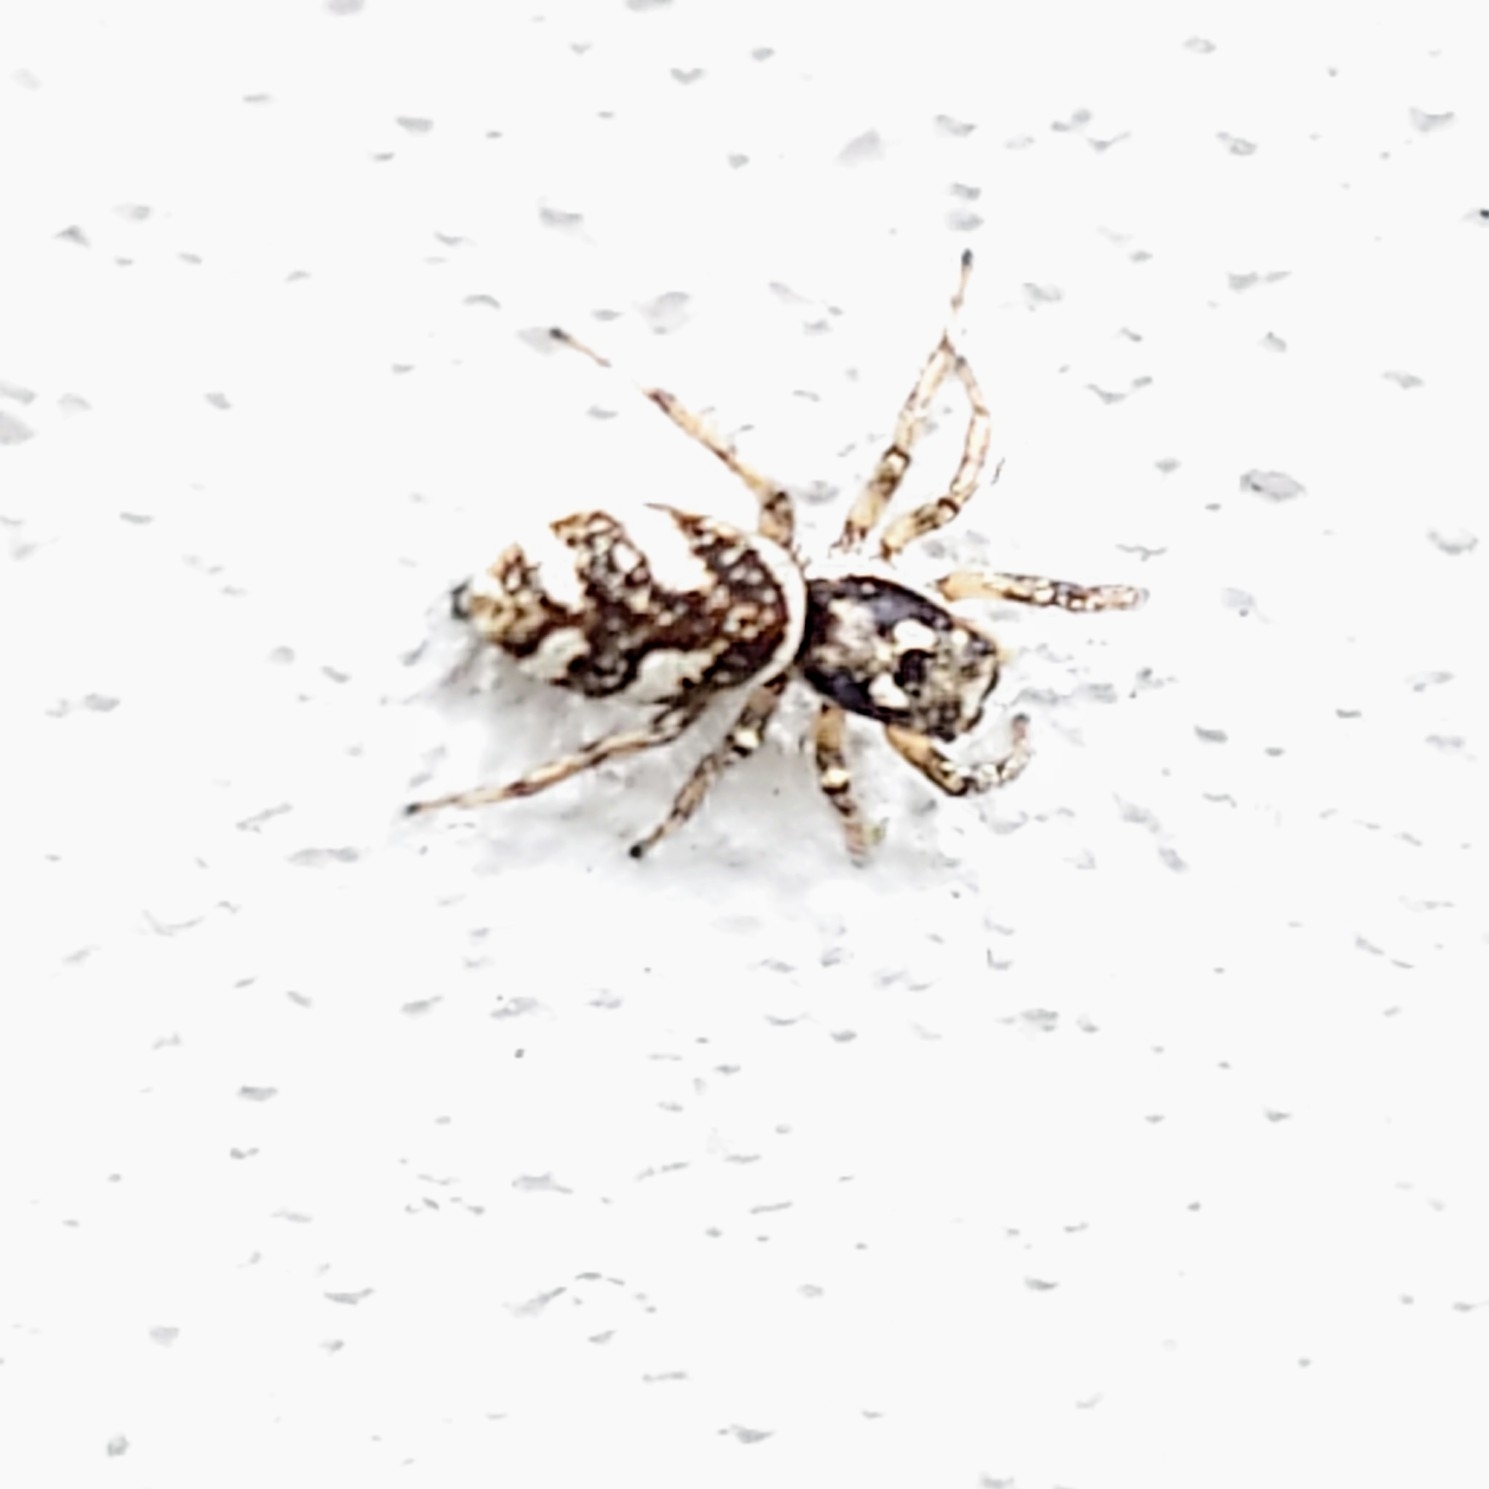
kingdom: Animalia
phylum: Arthropoda
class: Arachnida
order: Araneae
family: Salticidae
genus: Salticus
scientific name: Salticus scenicus
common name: Zebra jumper
